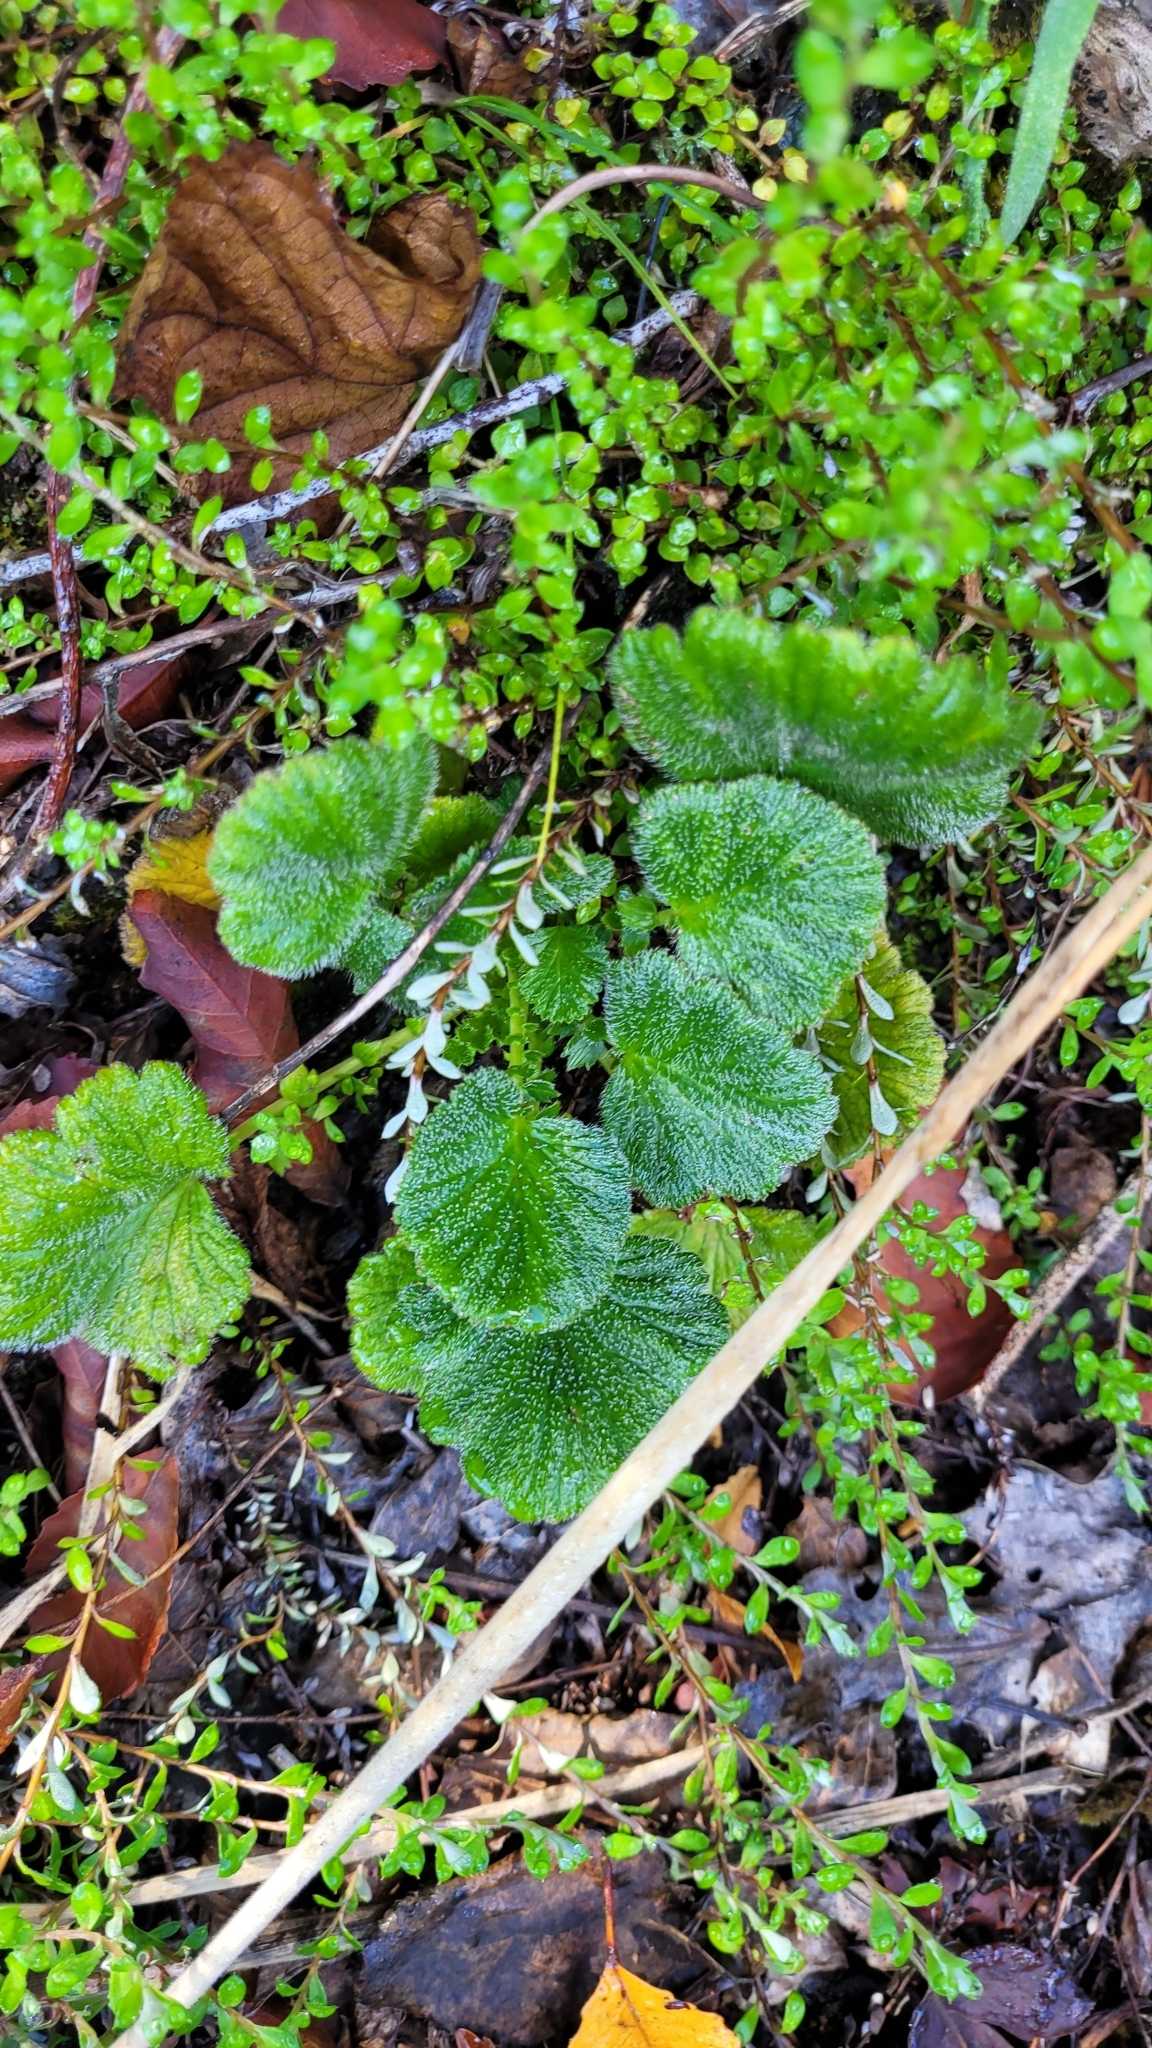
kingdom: Plantae
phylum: Tracheophyta
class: Magnoliopsida
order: Rosales
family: Rosaceae
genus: Geum
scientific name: Geum cockaynei
